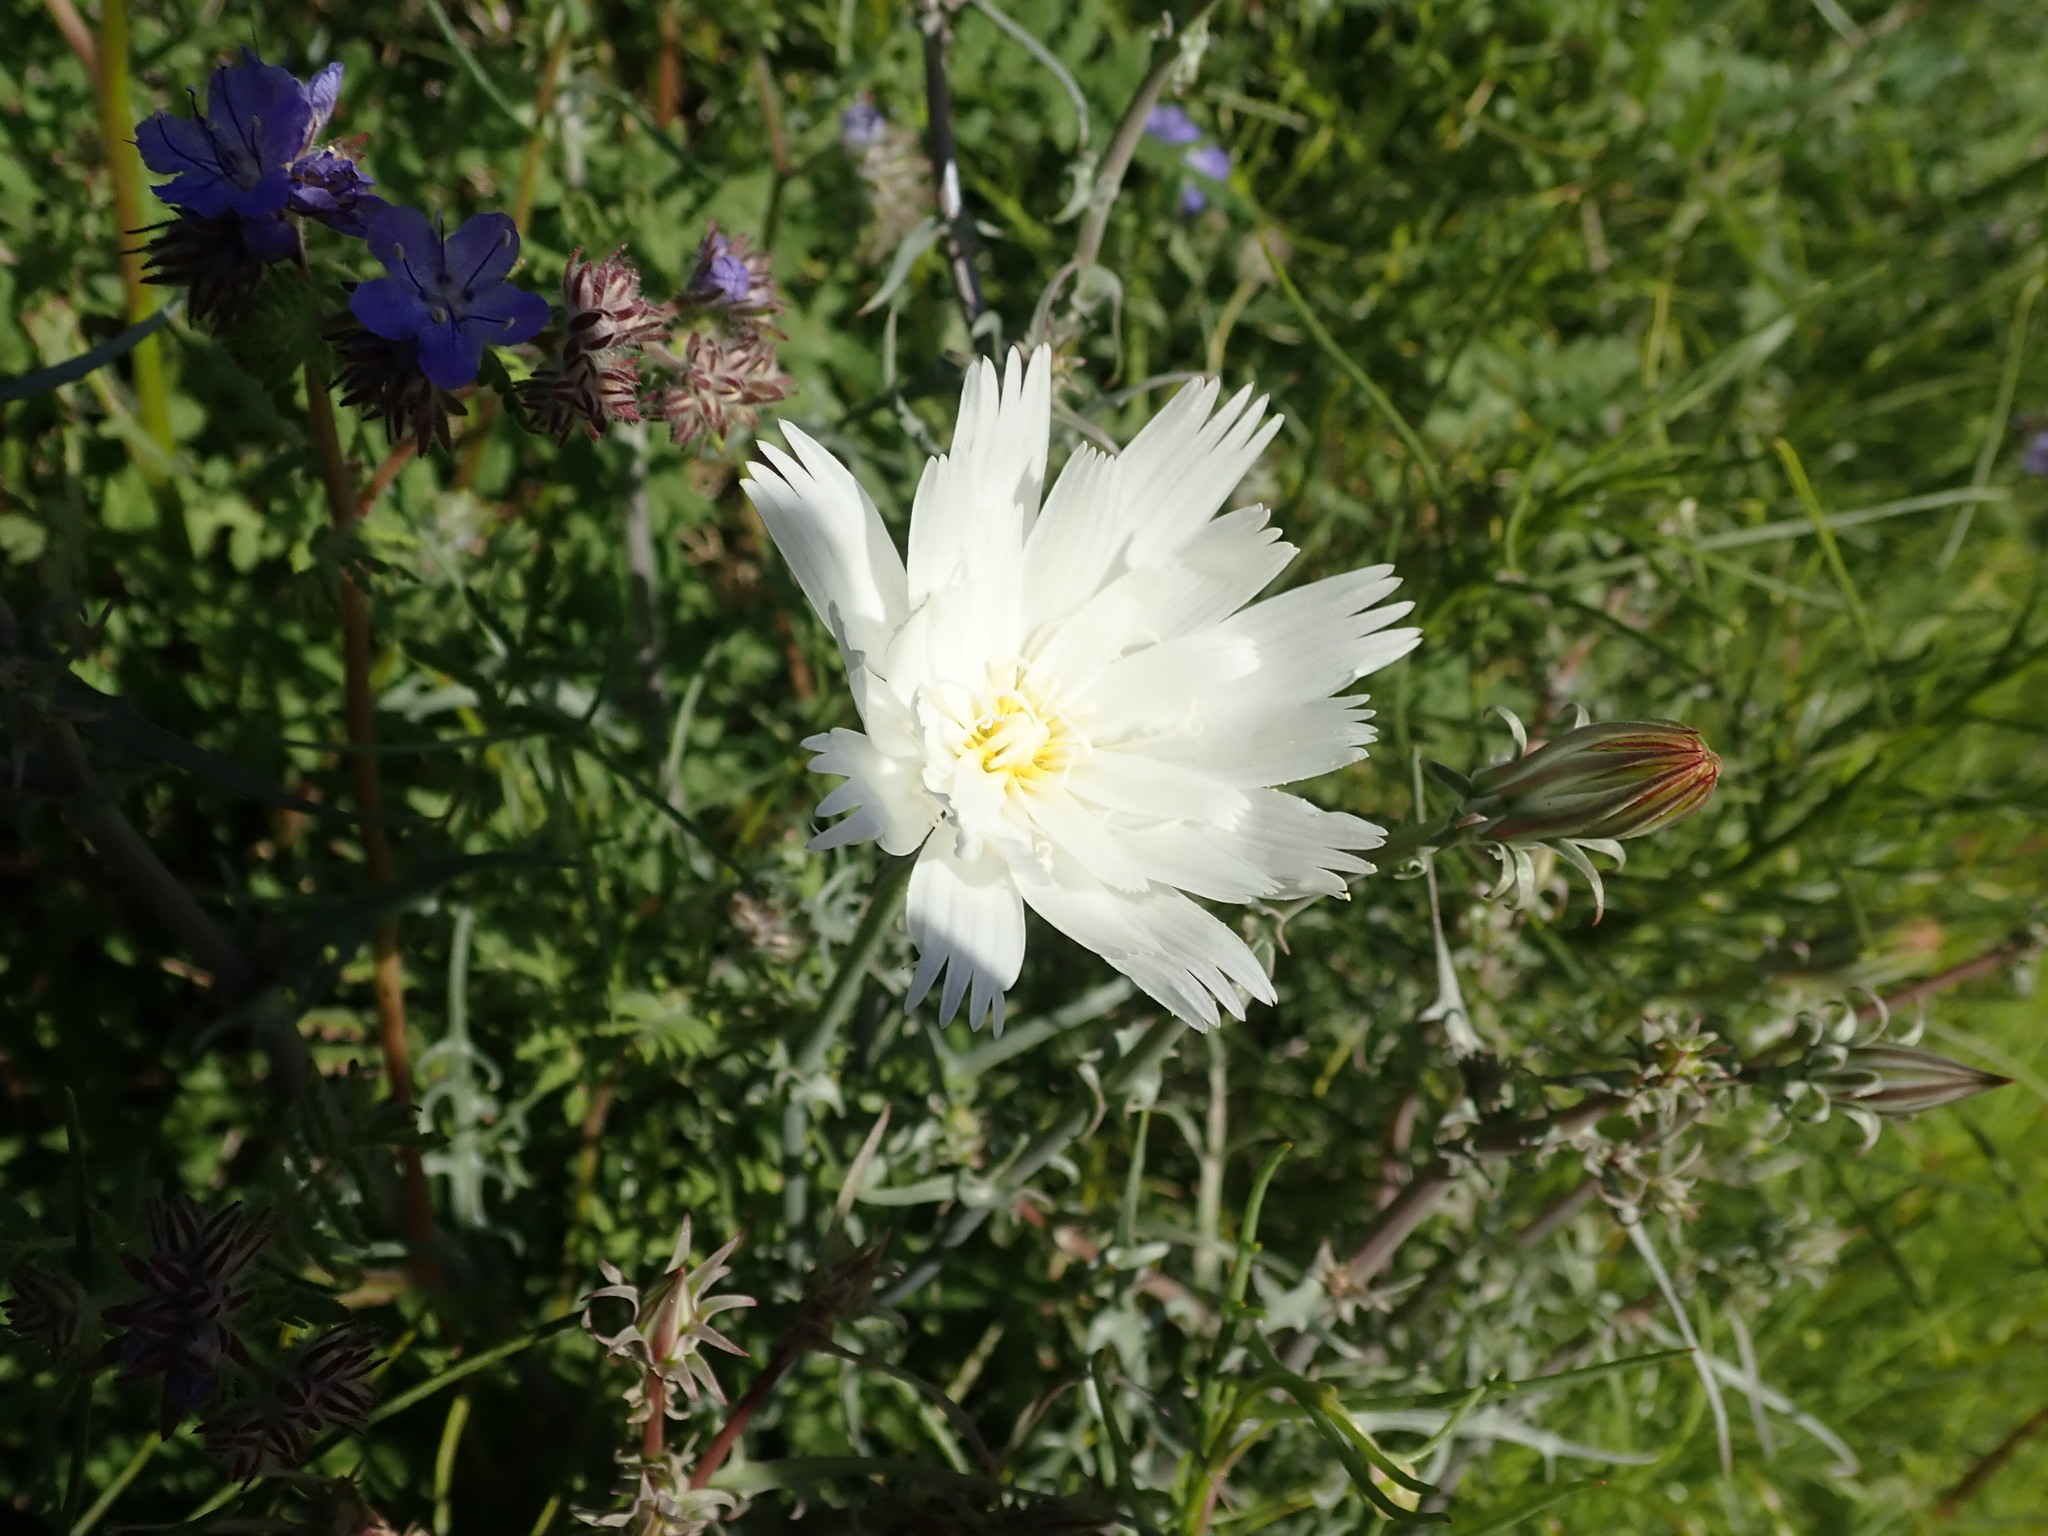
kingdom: Plantae
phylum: Tracheophyta
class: Magnoliopsida
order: Asterales
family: Asteraceae
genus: Rafinesquia
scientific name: Rafinesquia neomexicana
